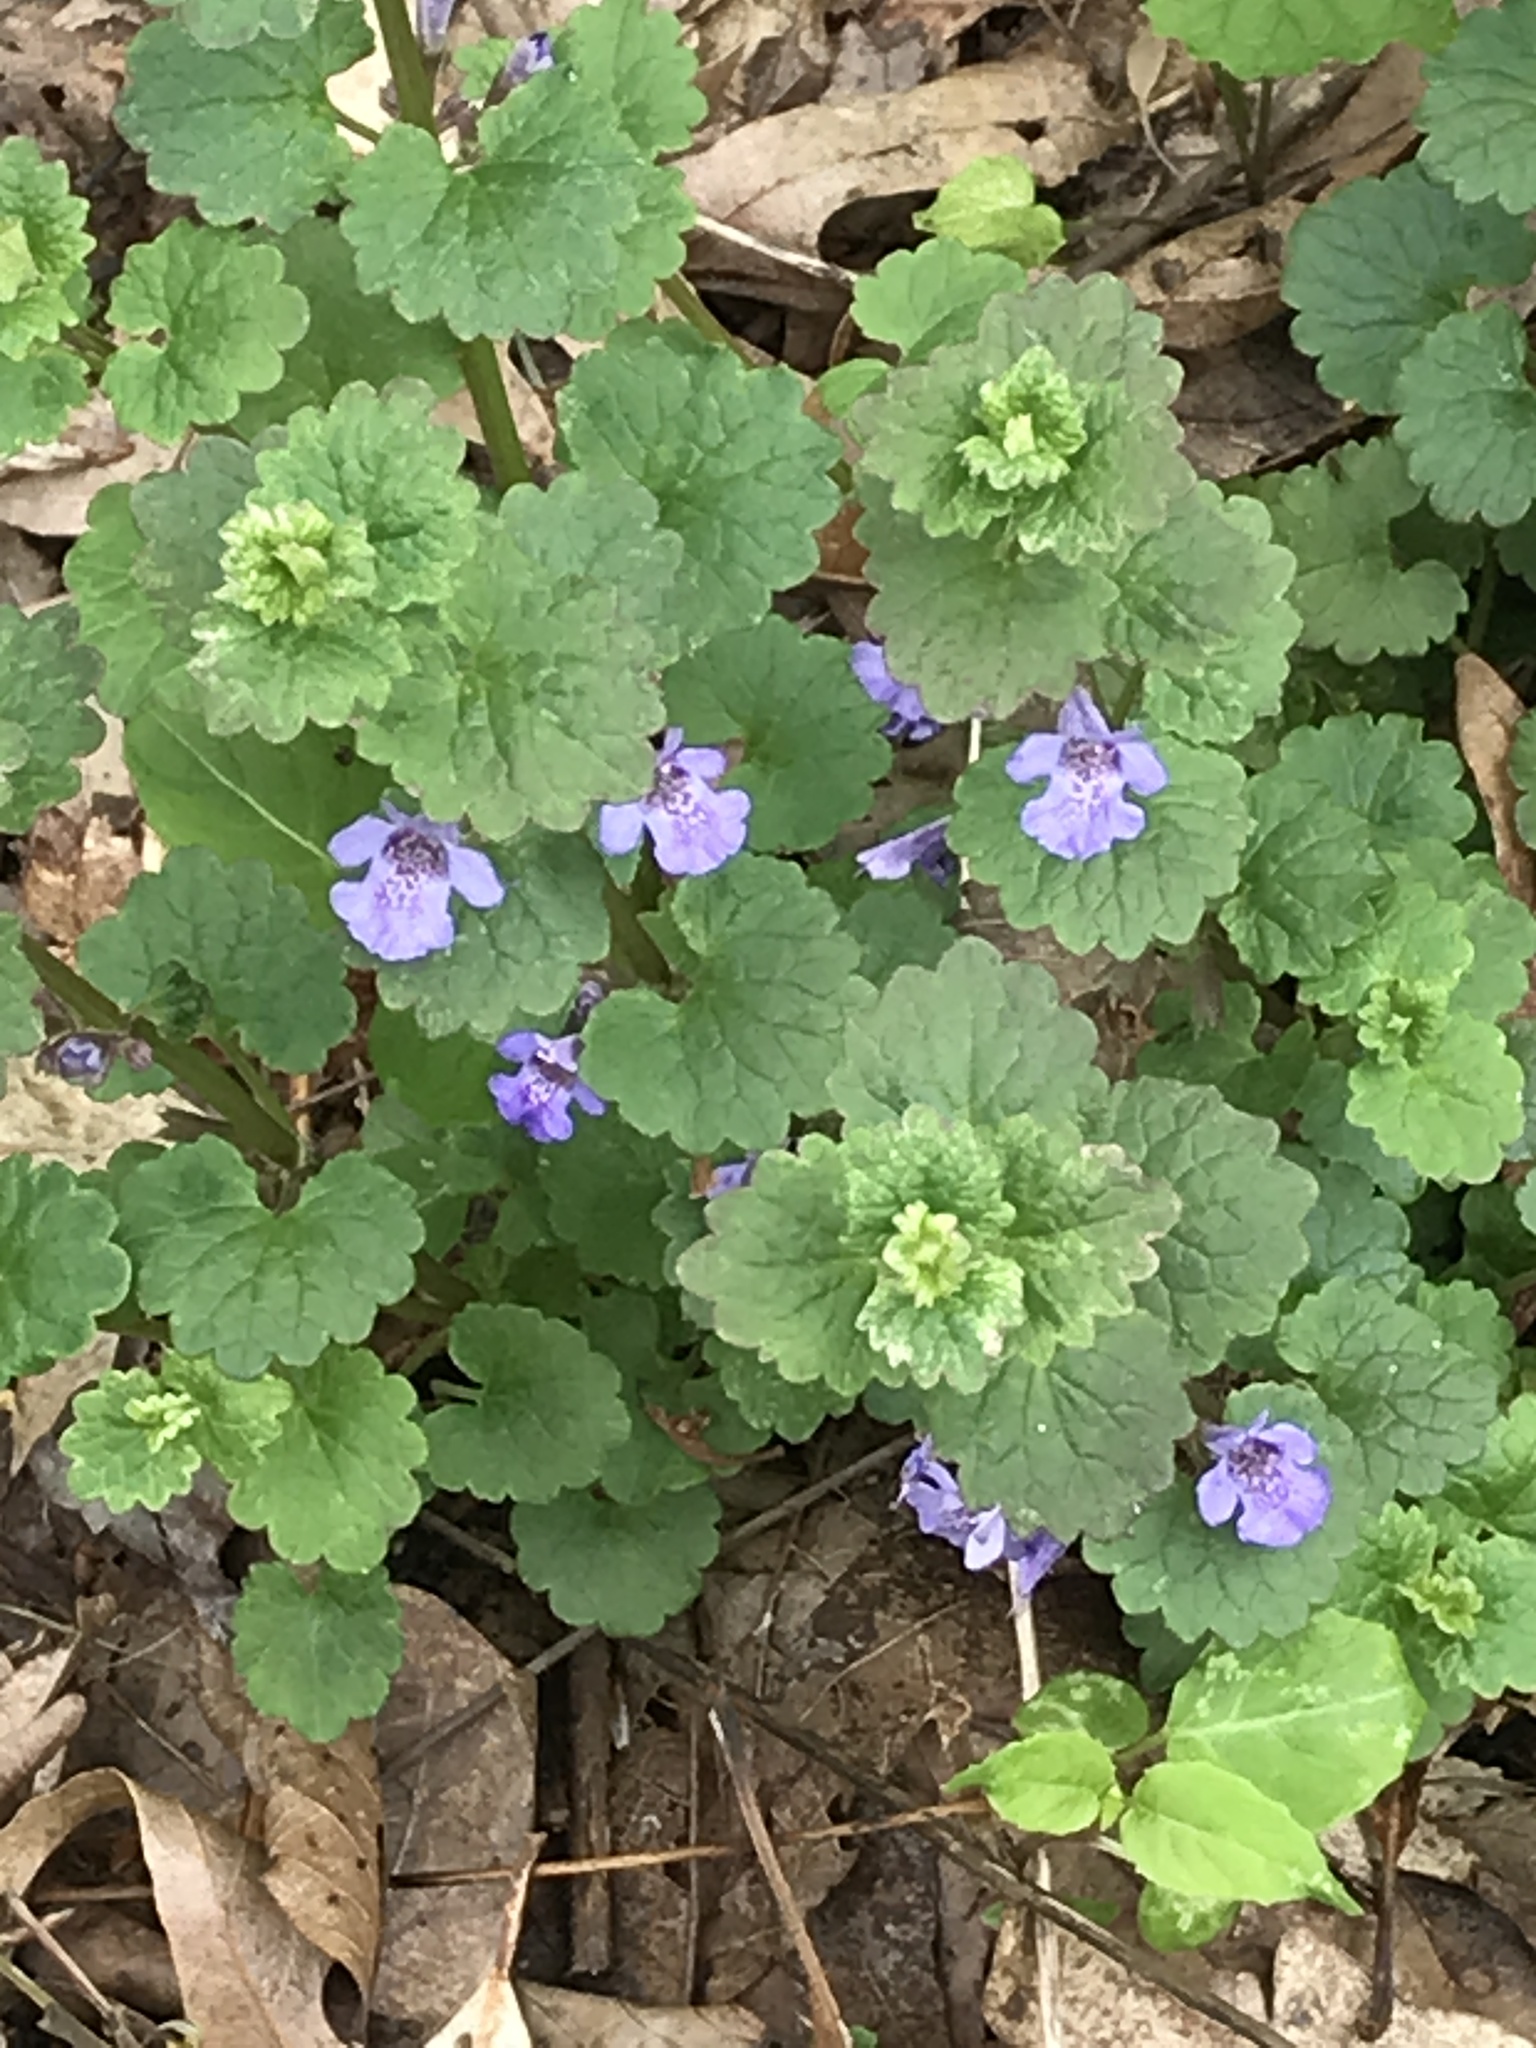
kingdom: Plantae
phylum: Tracheophyta
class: Magnoliopsida
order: Lamiales
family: Lamiaceae
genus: Glechoma
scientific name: Glechoma hederacea
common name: Ground ivy
